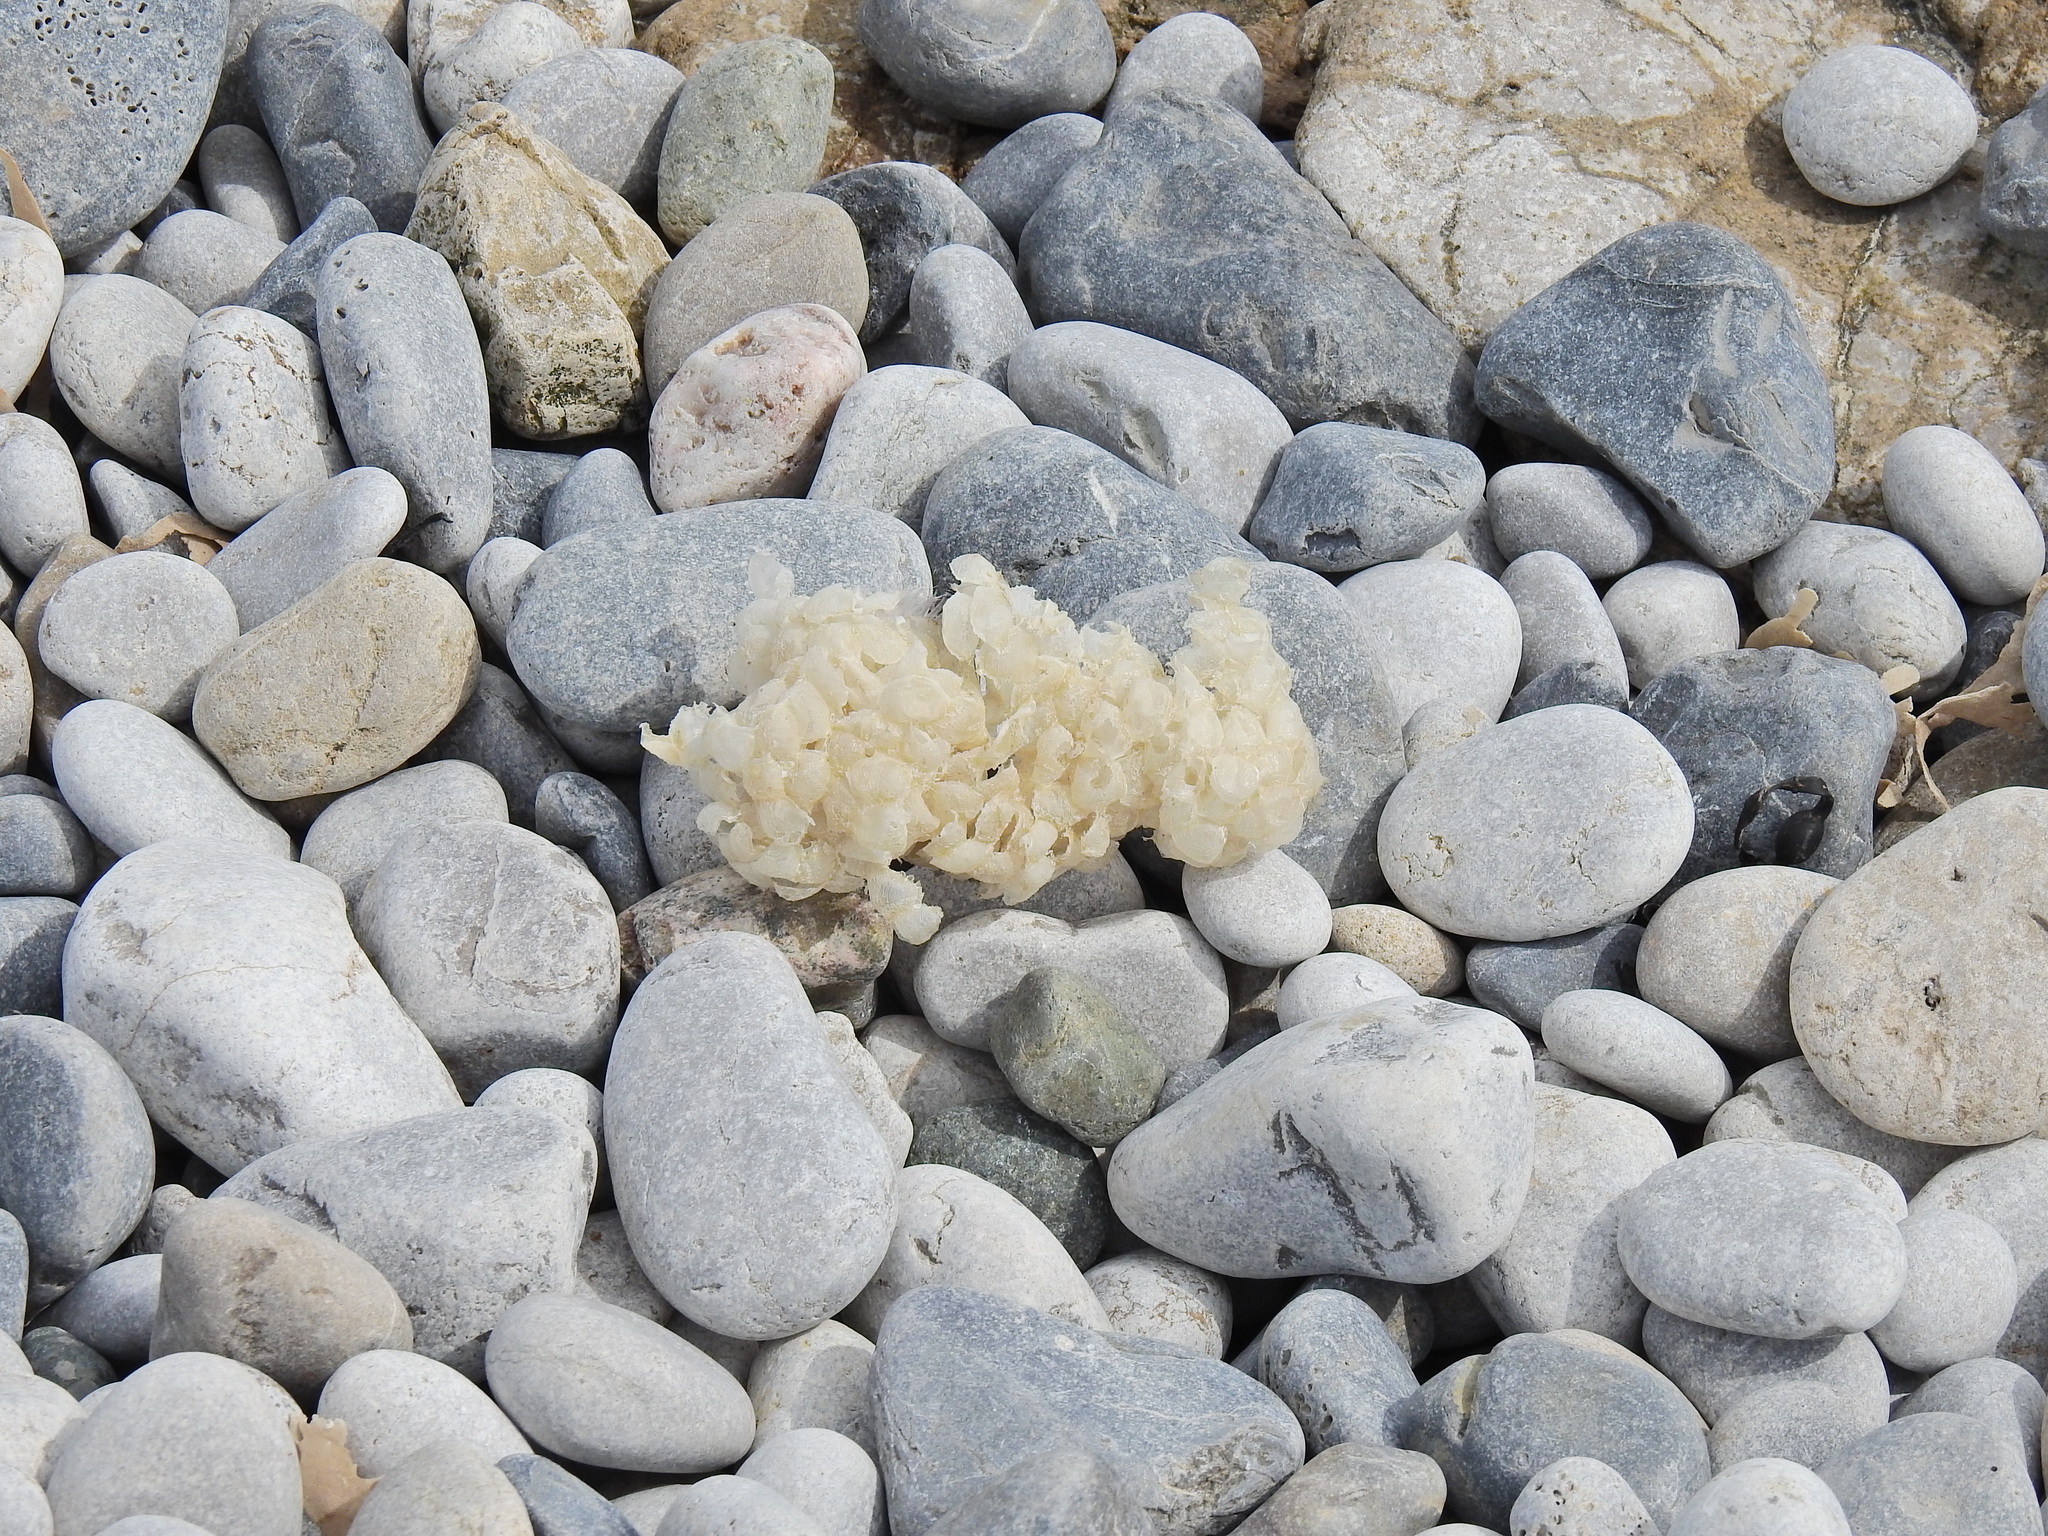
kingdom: Animalia
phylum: Mollusca
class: Gastropoda
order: Neogastropoda
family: Buccinidae
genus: Buccinum
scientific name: Buccinum undatum
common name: Common whelk
